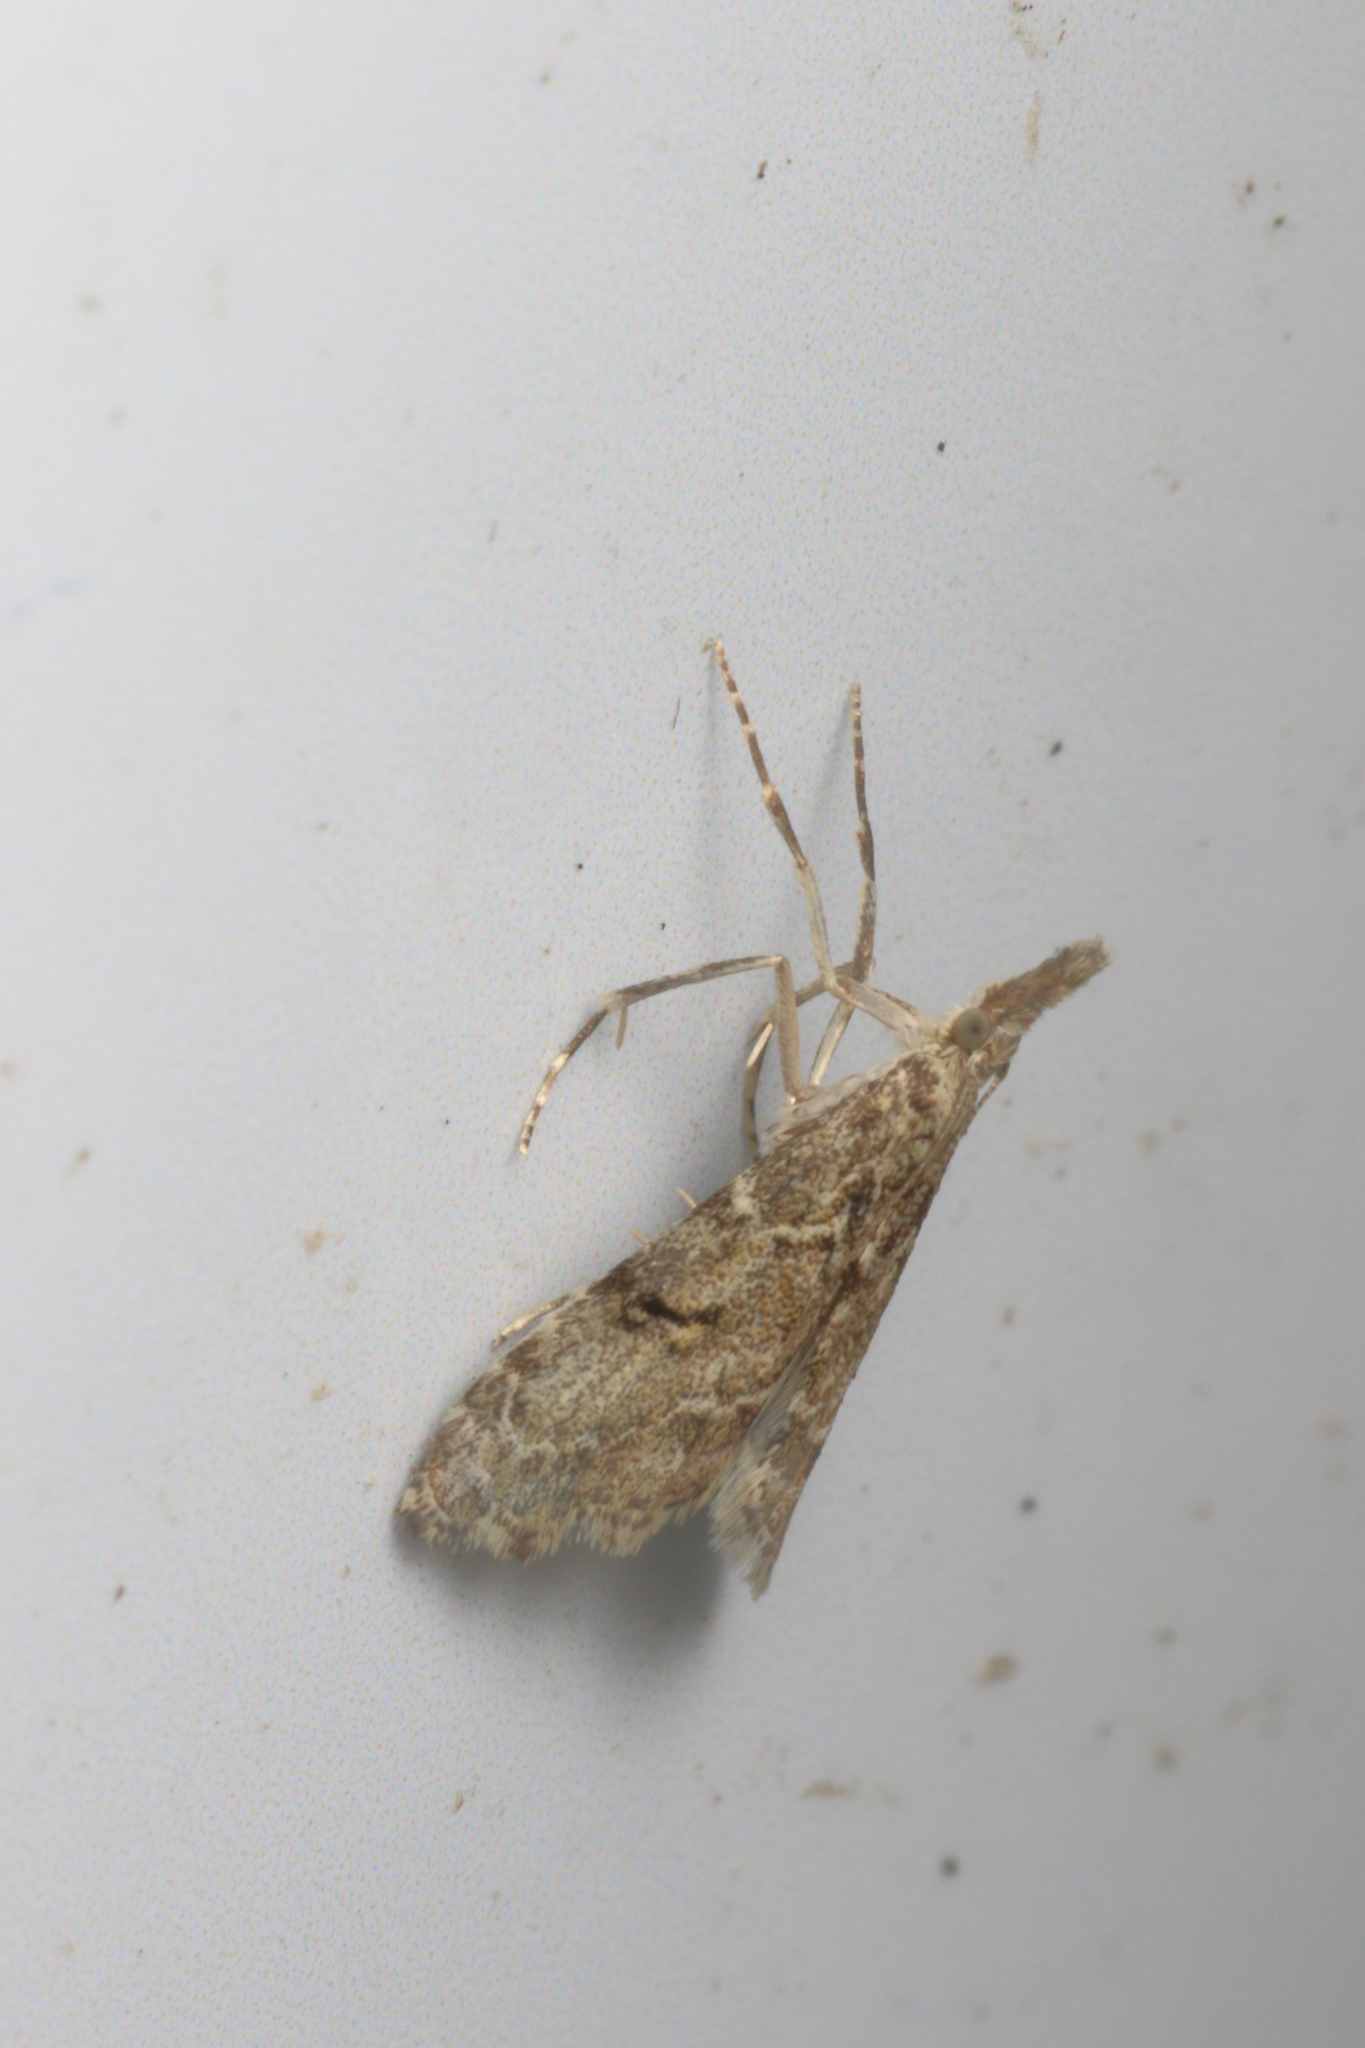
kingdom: Animalia
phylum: Arthropoda
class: Insecta
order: Lepidoptera
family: Crambidae
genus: Glaucocharis
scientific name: Glaucocharis elaina
